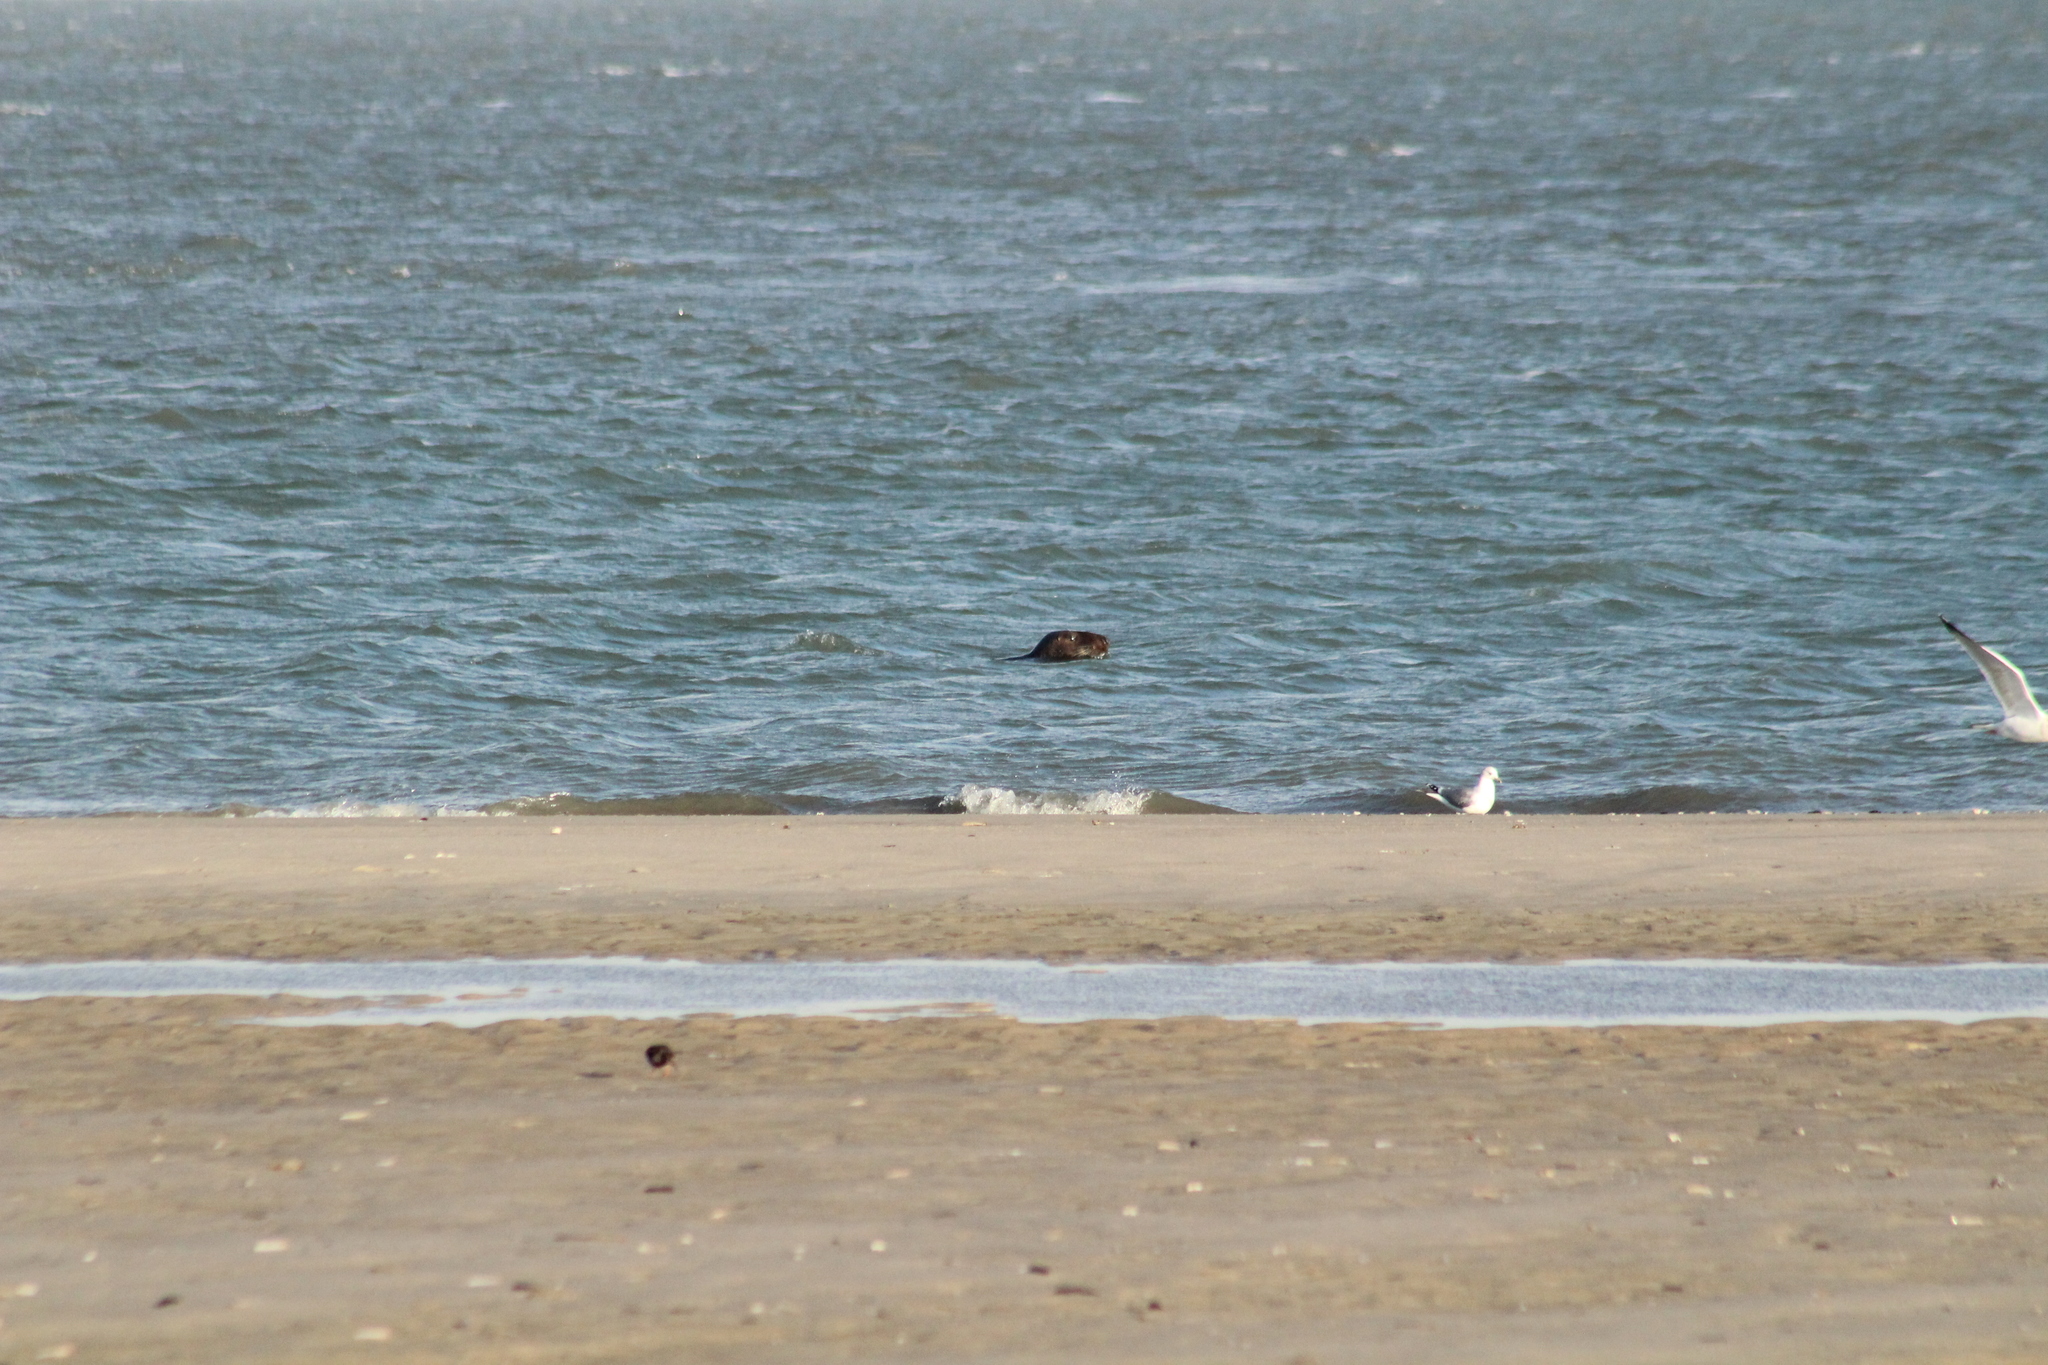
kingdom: Animalia
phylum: Chordata
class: Mammalia
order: Carnivora
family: Phocidae
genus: Halichoerus
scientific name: Halichoerus grypus
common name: Grey seal
